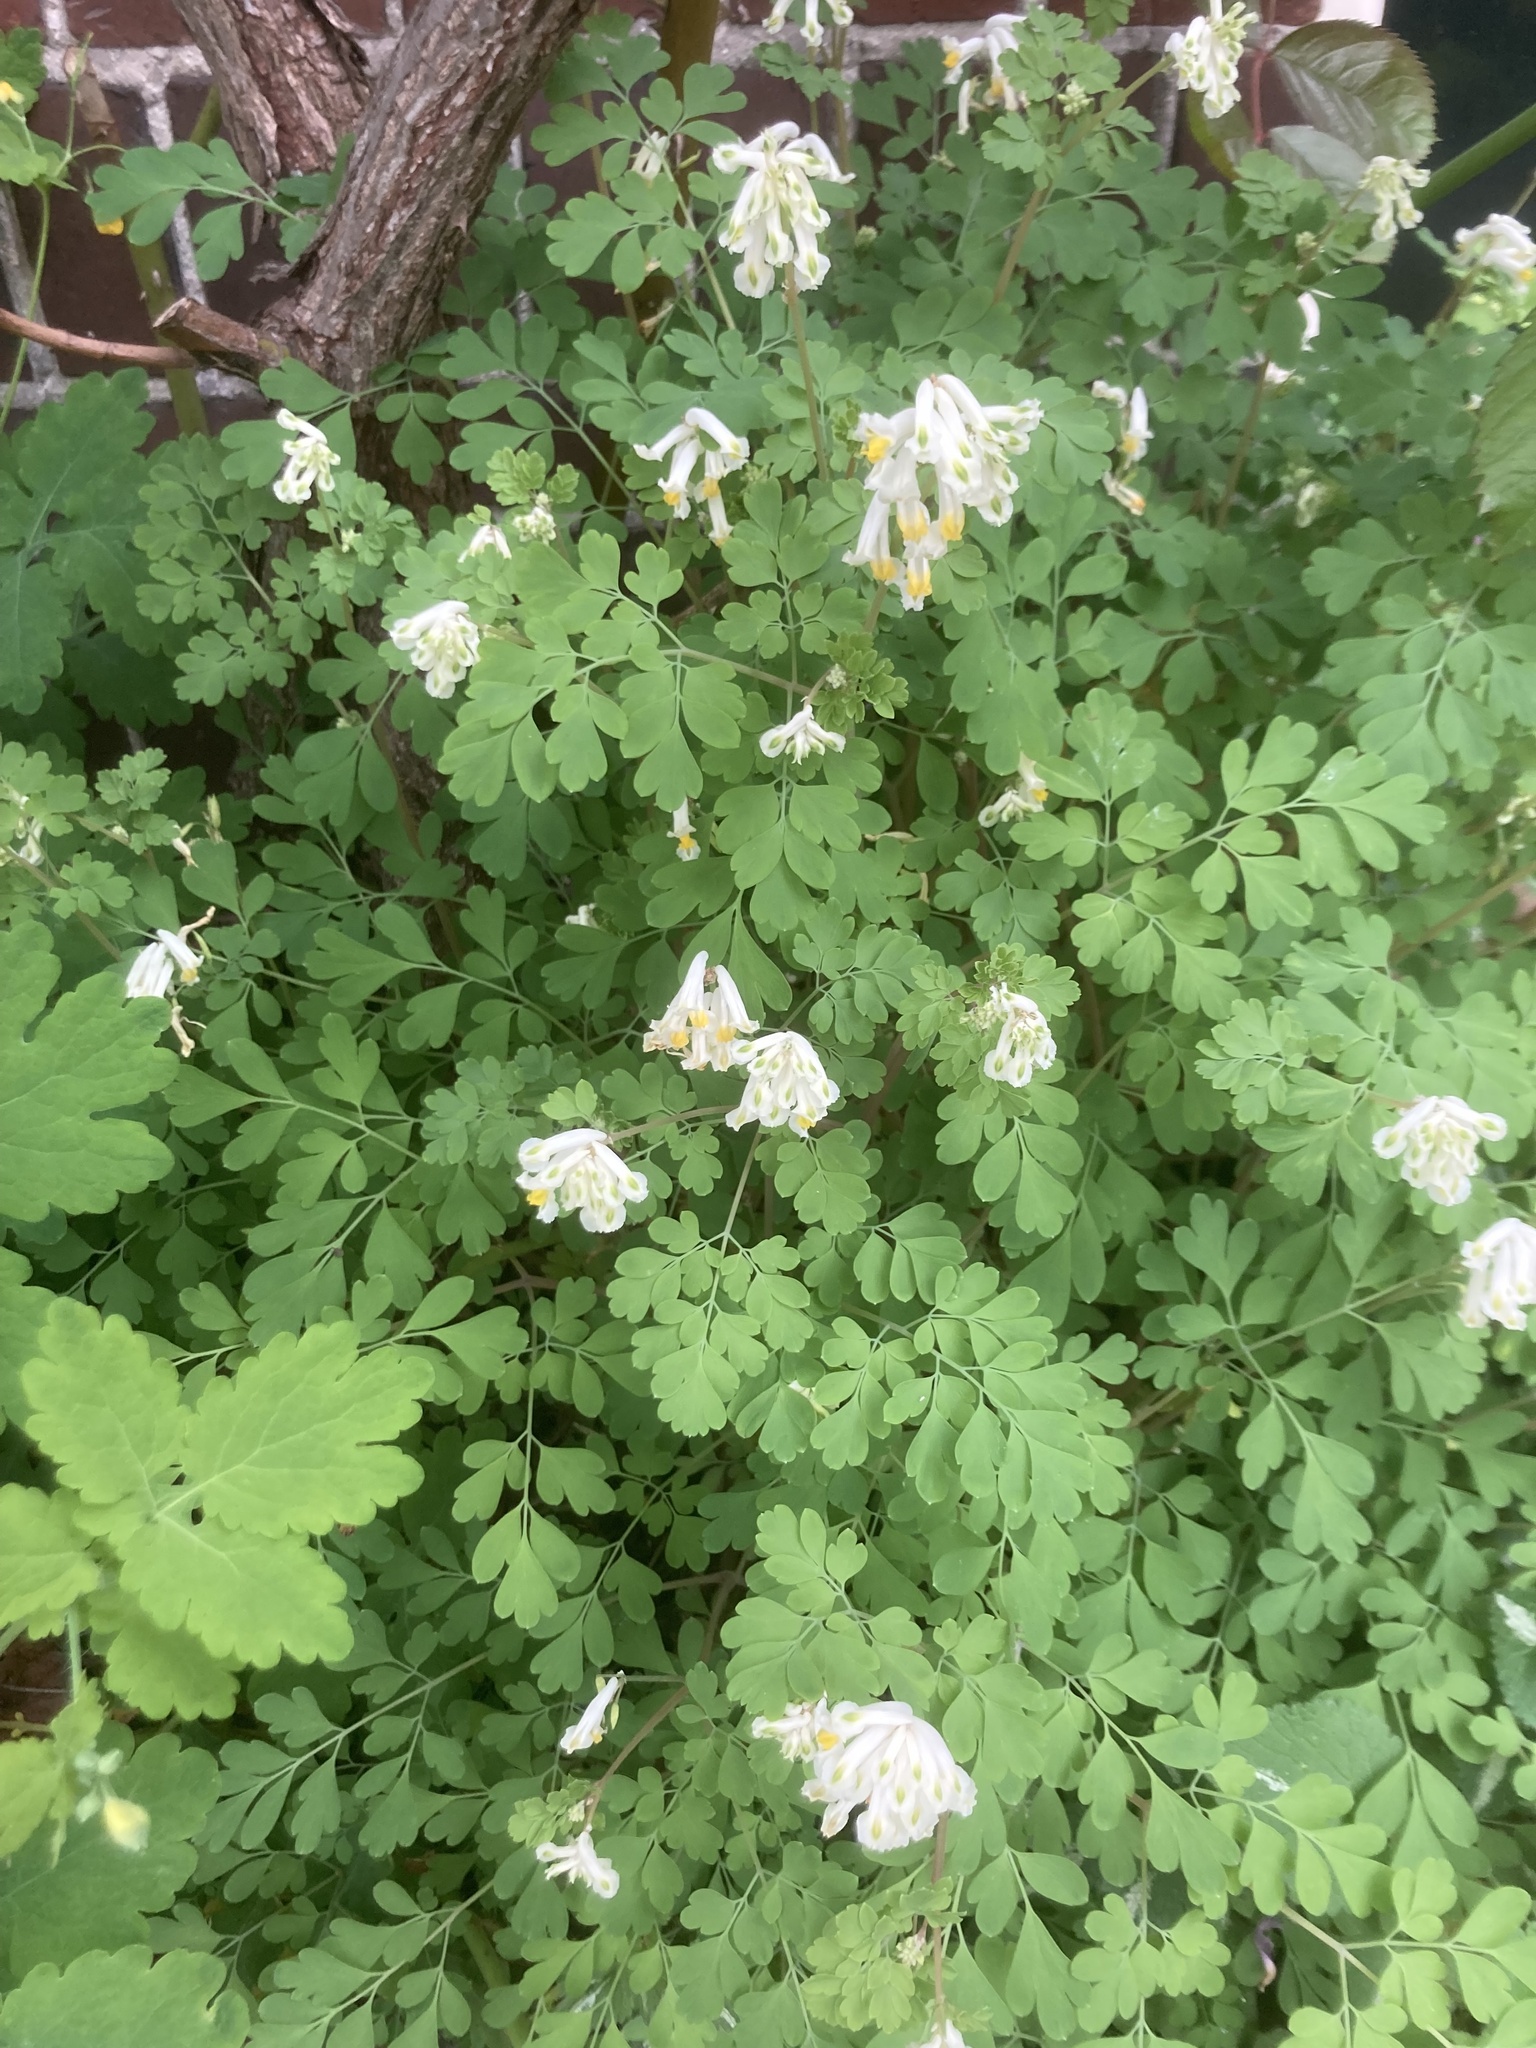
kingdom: Plantae
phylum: Tracheophyta
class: Magnoliopsida
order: Ranunculales
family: Papaveraceae
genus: Pseudofumaria
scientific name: Pseudofumaria alba
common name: Pale corydalis
